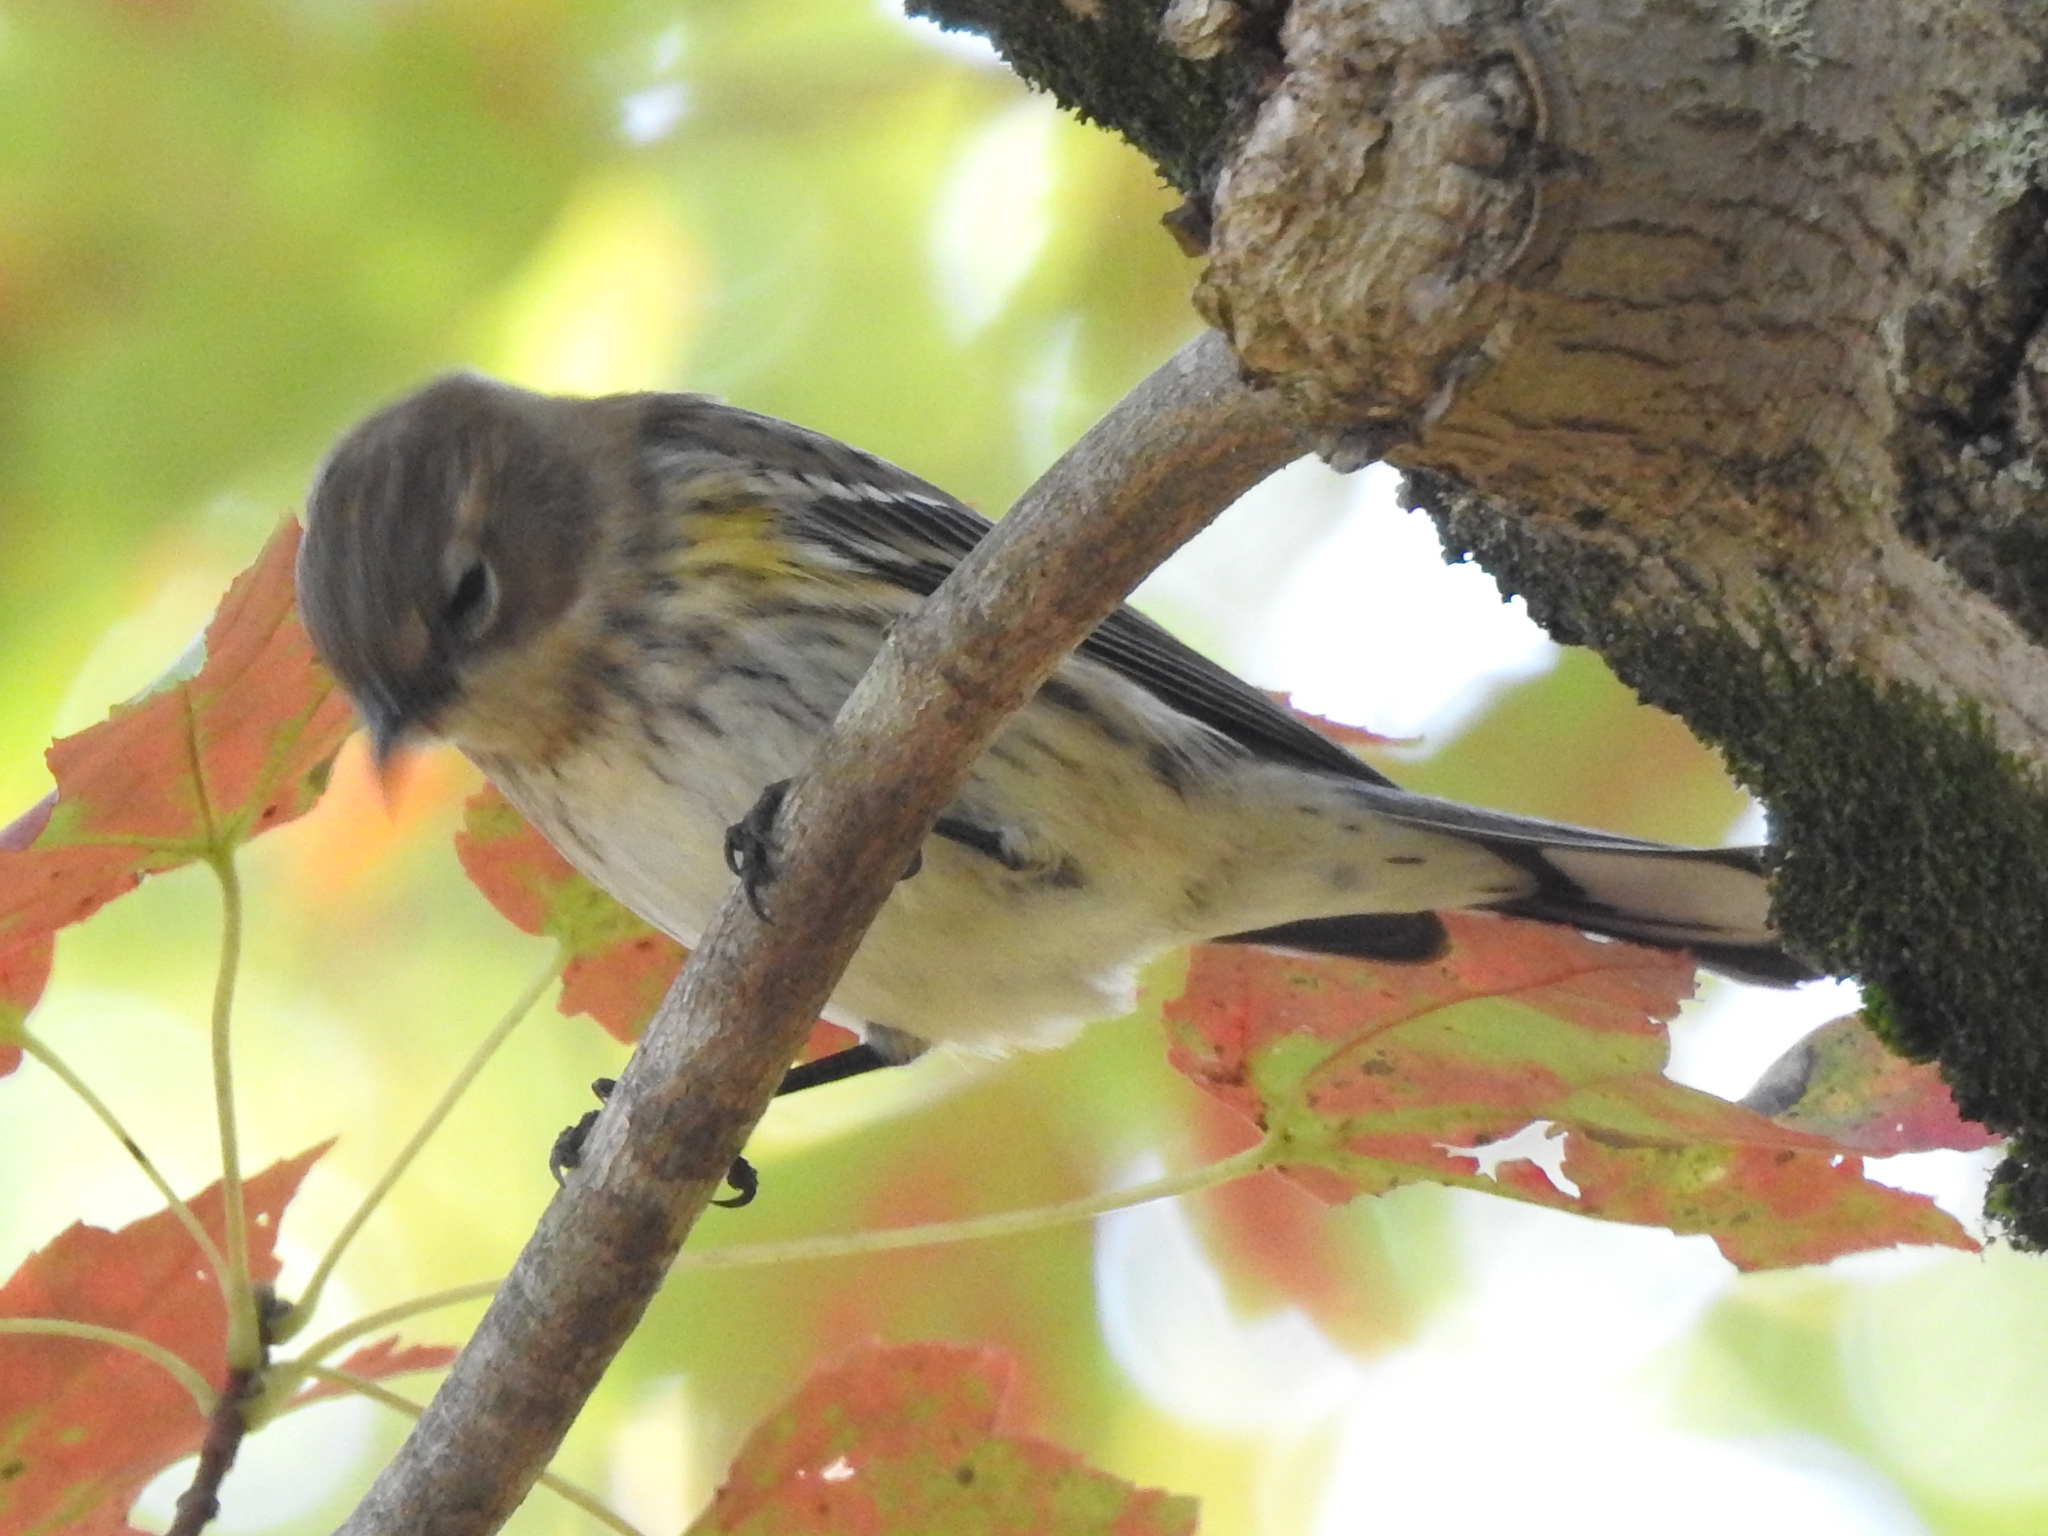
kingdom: Animalia
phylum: Chordata
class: Aves
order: Passeriformes
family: Parulidae
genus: Setophaga
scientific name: Setophaga coronata
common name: Myrtle warbler
